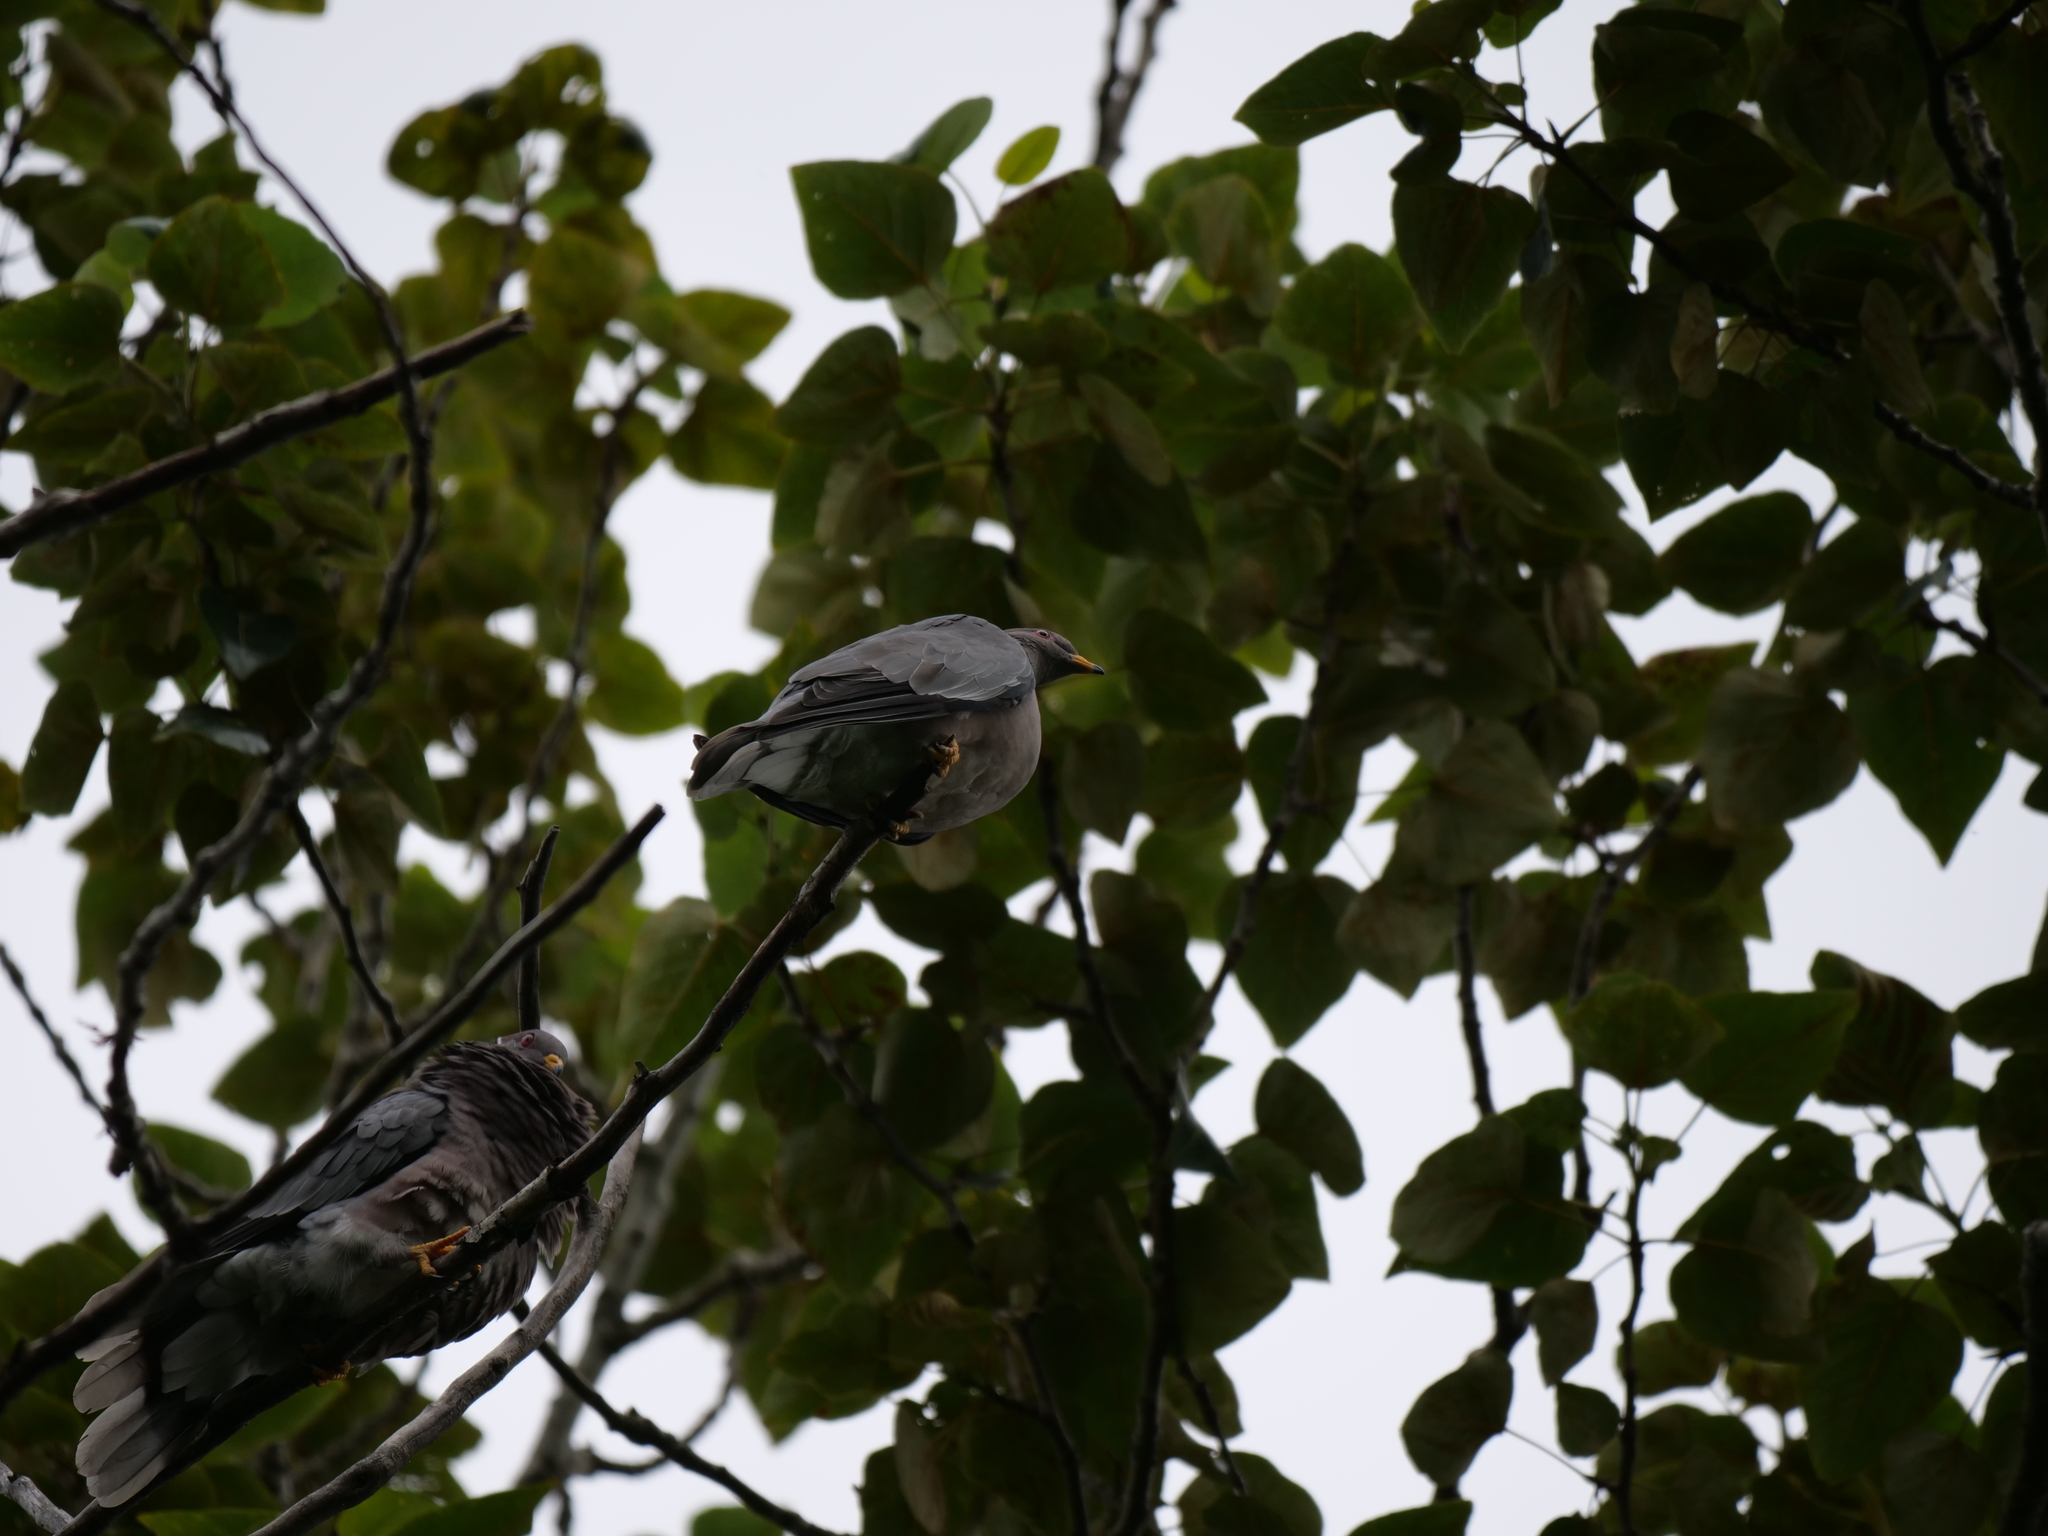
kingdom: Animalia
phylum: Chordata
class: Aves
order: Columbiformes
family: Columbidae
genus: Patagioenas
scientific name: Patagioenas fasciata
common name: Band-tailed pigeon
